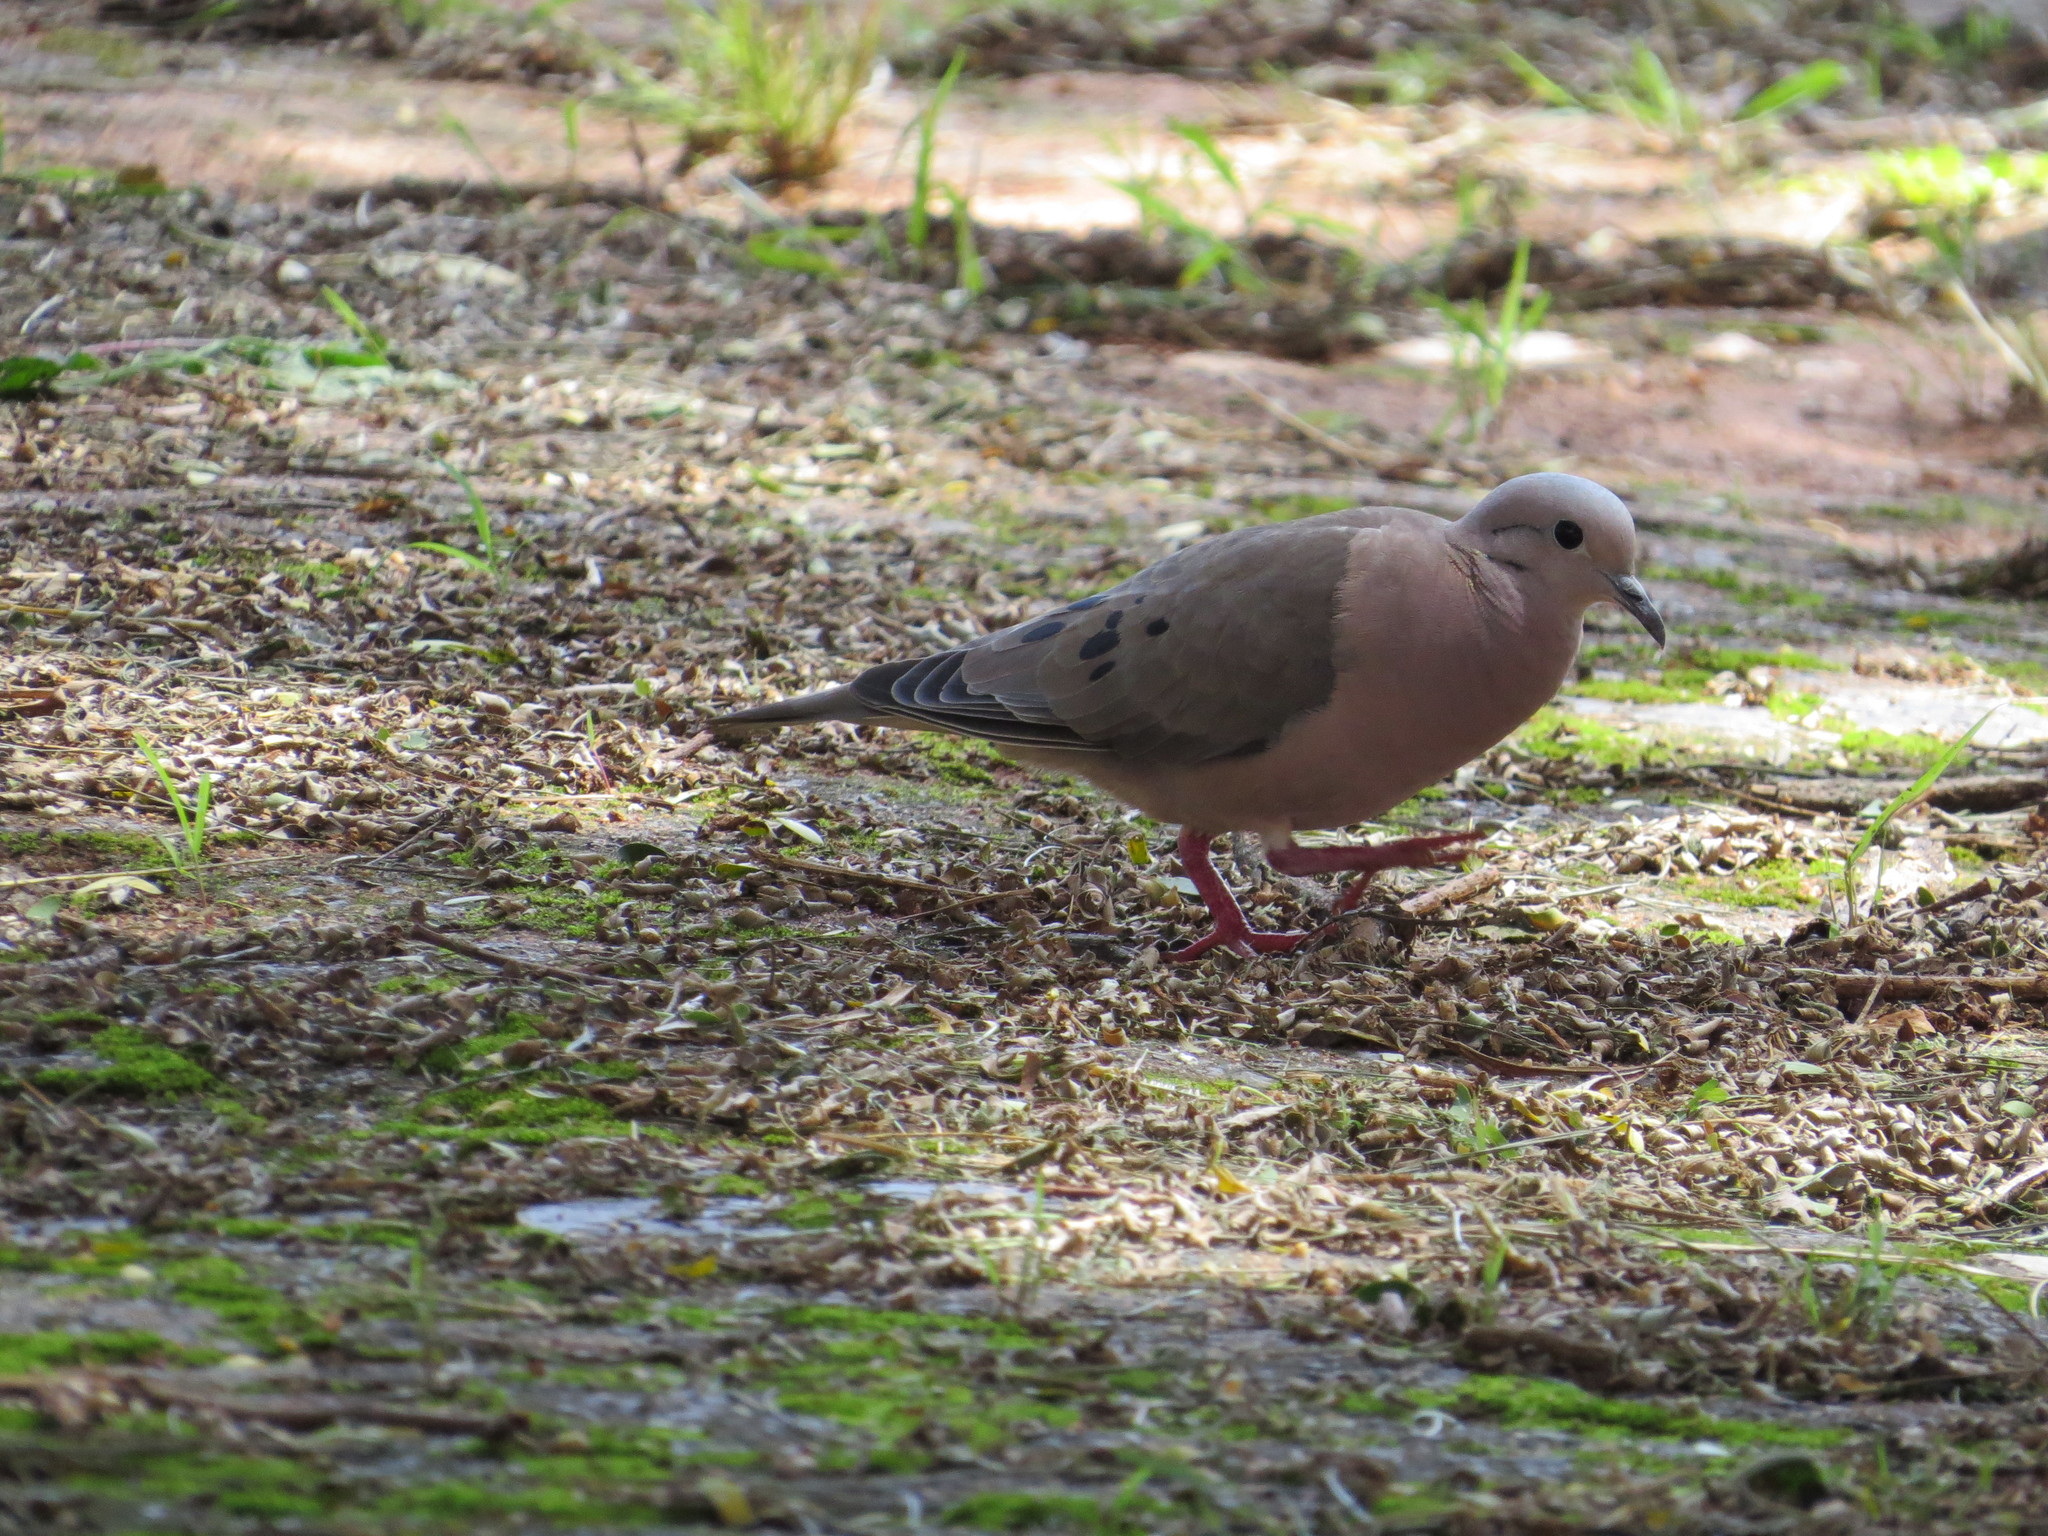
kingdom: Animalia
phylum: Chordata
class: Aves
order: Columbiformes
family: Columbidae
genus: Zenaida
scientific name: Zenaida auriculata
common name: Eared dove
